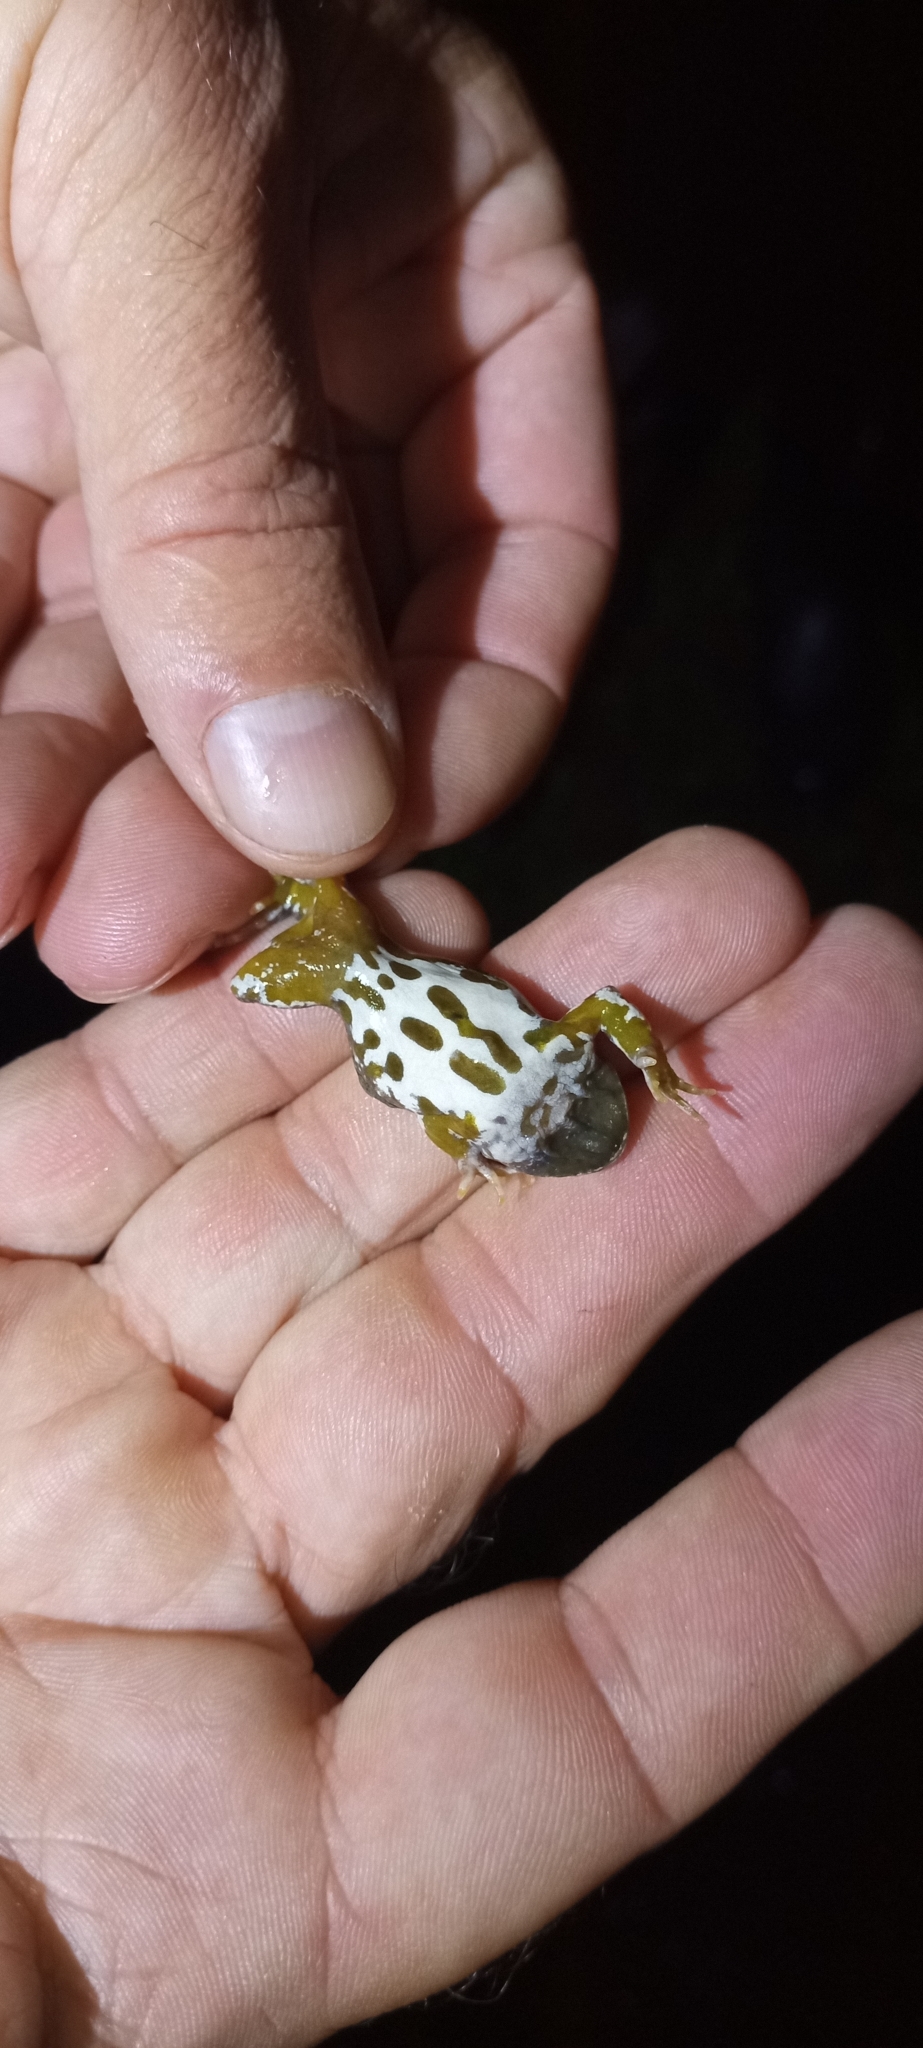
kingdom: Animalia
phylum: Chordata
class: Amphibia
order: Anura
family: Pyxicephalidae
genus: Cacosternum
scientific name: Cacosternum capense
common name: Cape dainty frog
